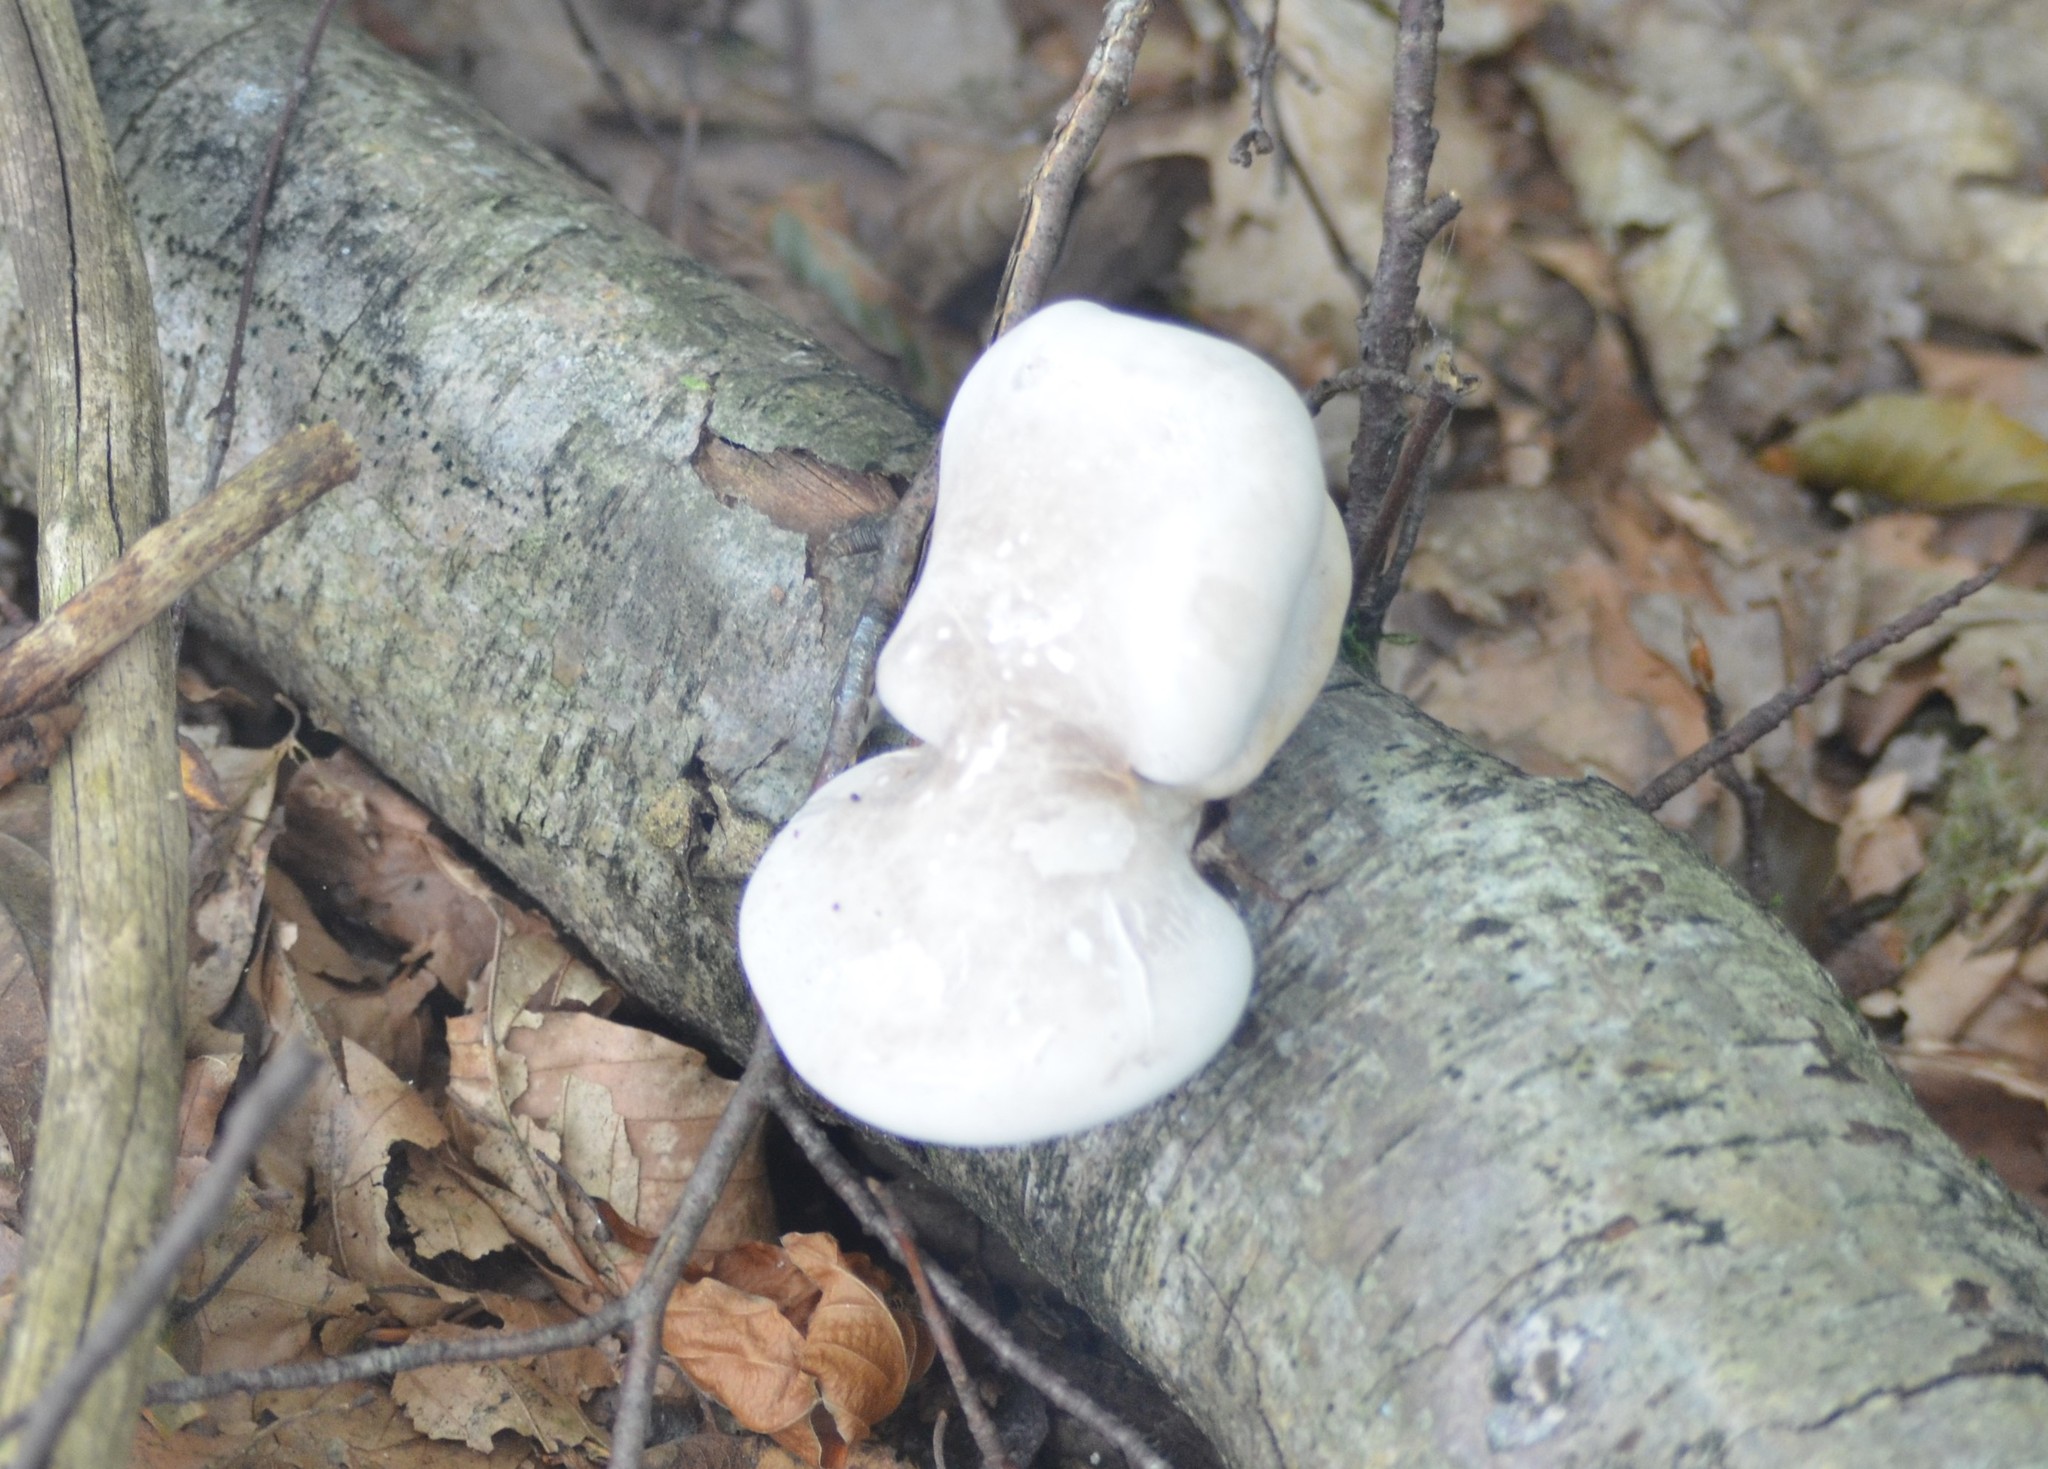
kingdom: Fungi
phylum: Basidiomycota
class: Agaricomycetes
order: Polyporales
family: Fomitopsidaceae
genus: Fomitopsis
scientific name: Fomitopsis betulina
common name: Birch polypore
